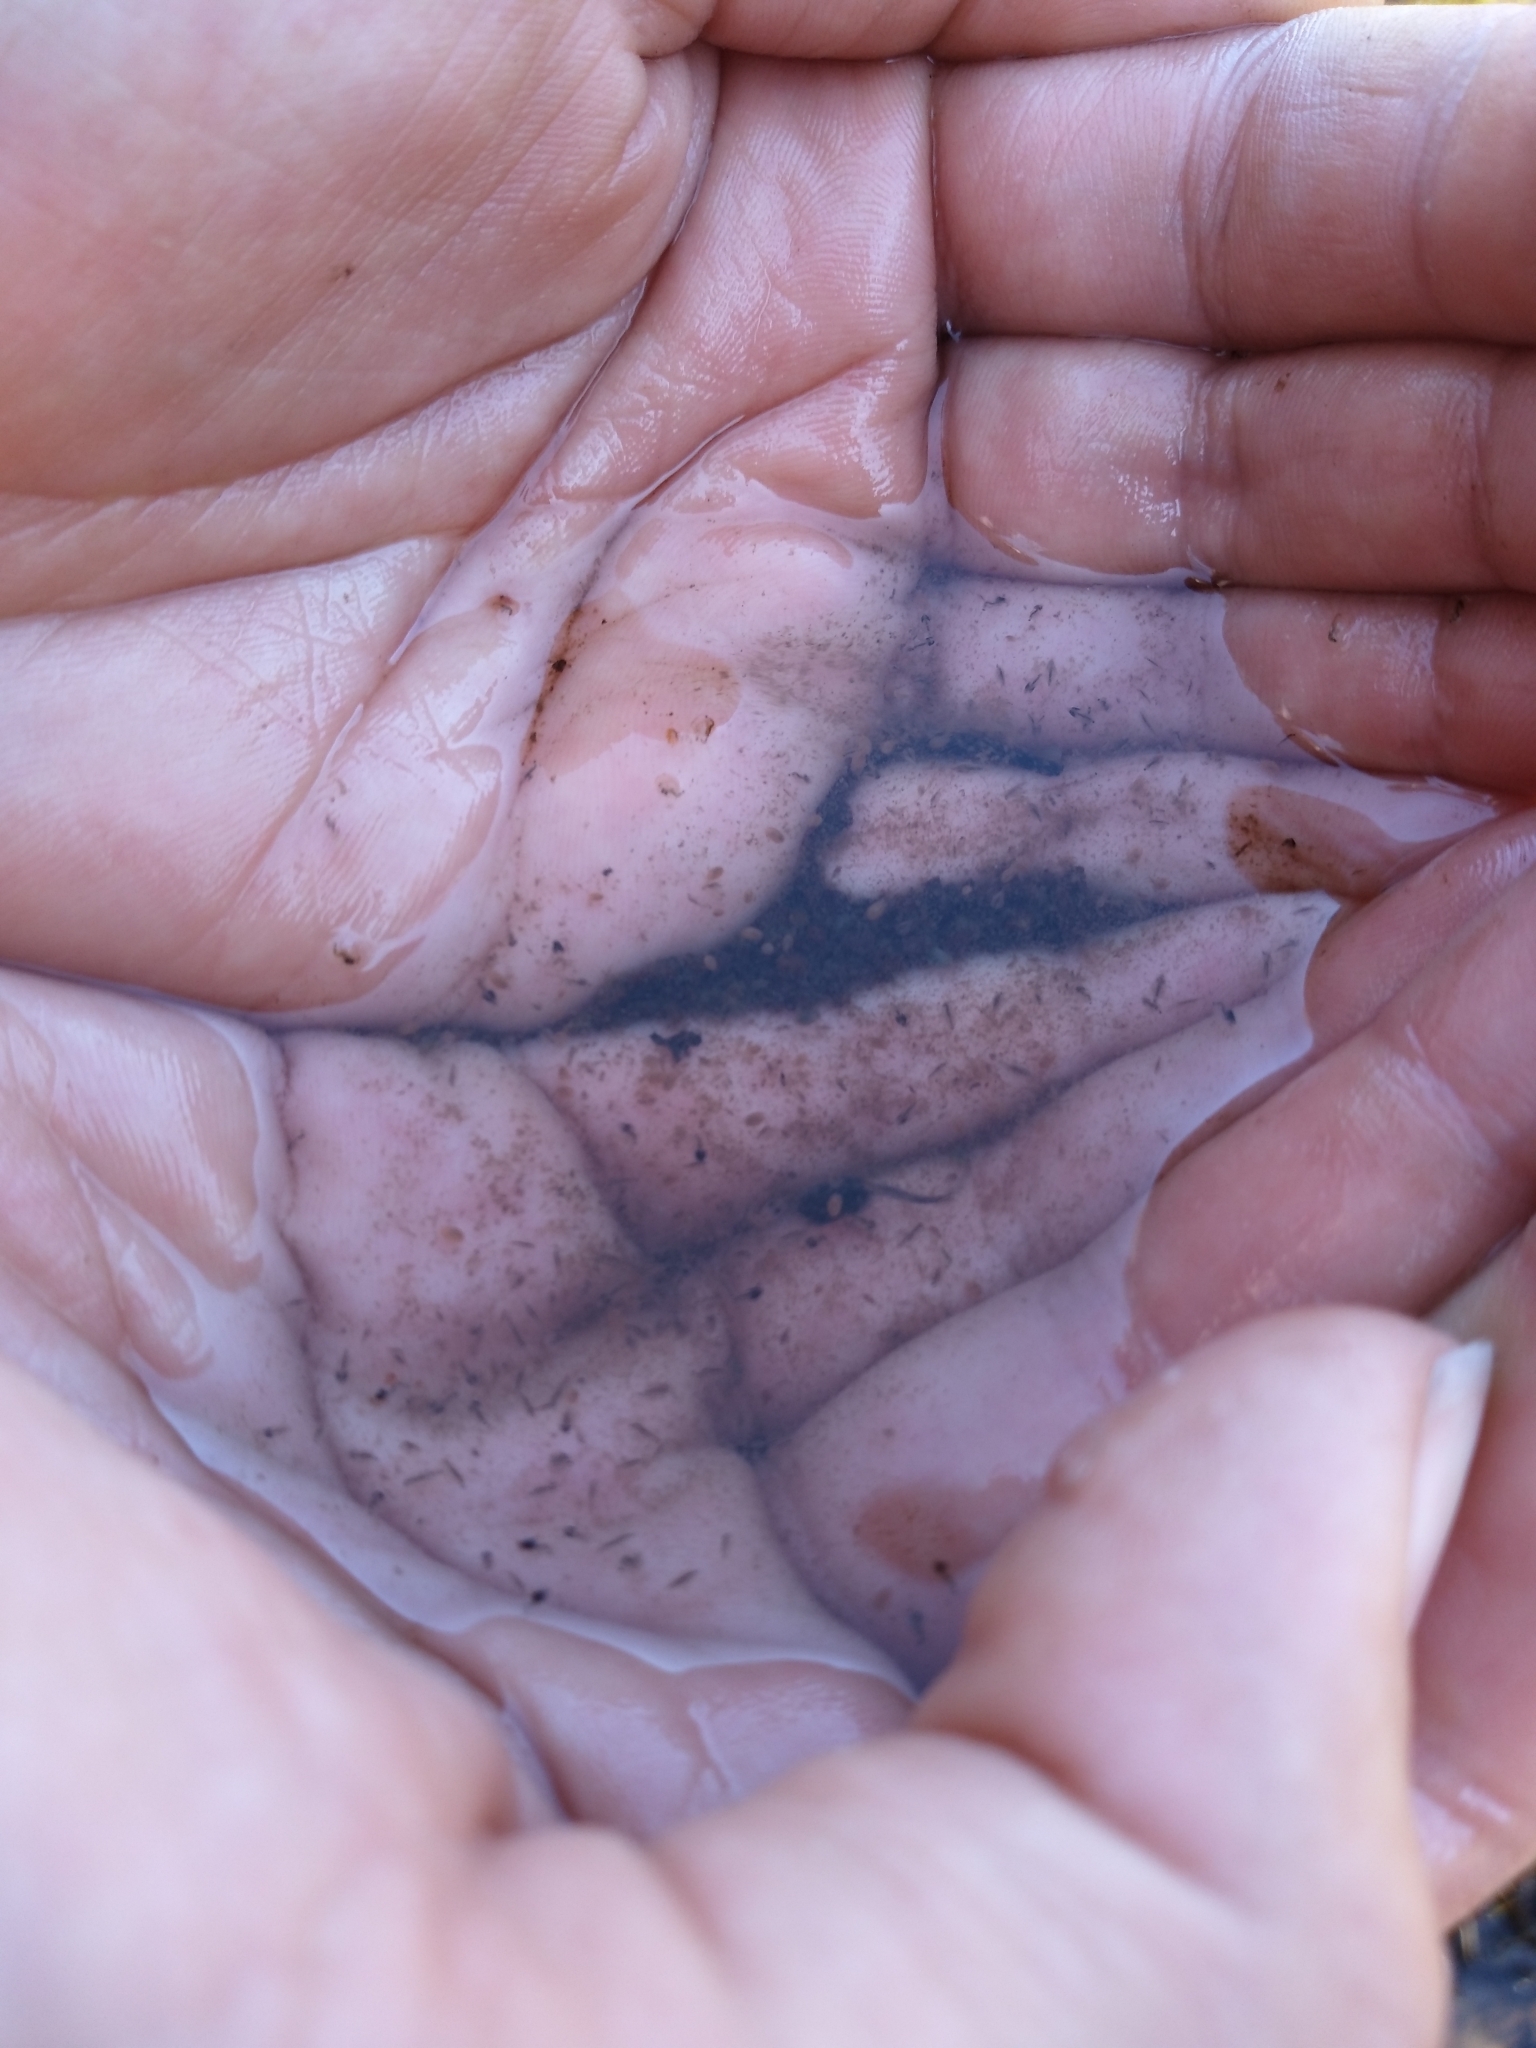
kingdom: Animalia
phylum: Chordata
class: Amphibia
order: Anura
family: Hylidae
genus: Pseudacris
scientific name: Pseudacris regilla
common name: Pacific chorus frog
